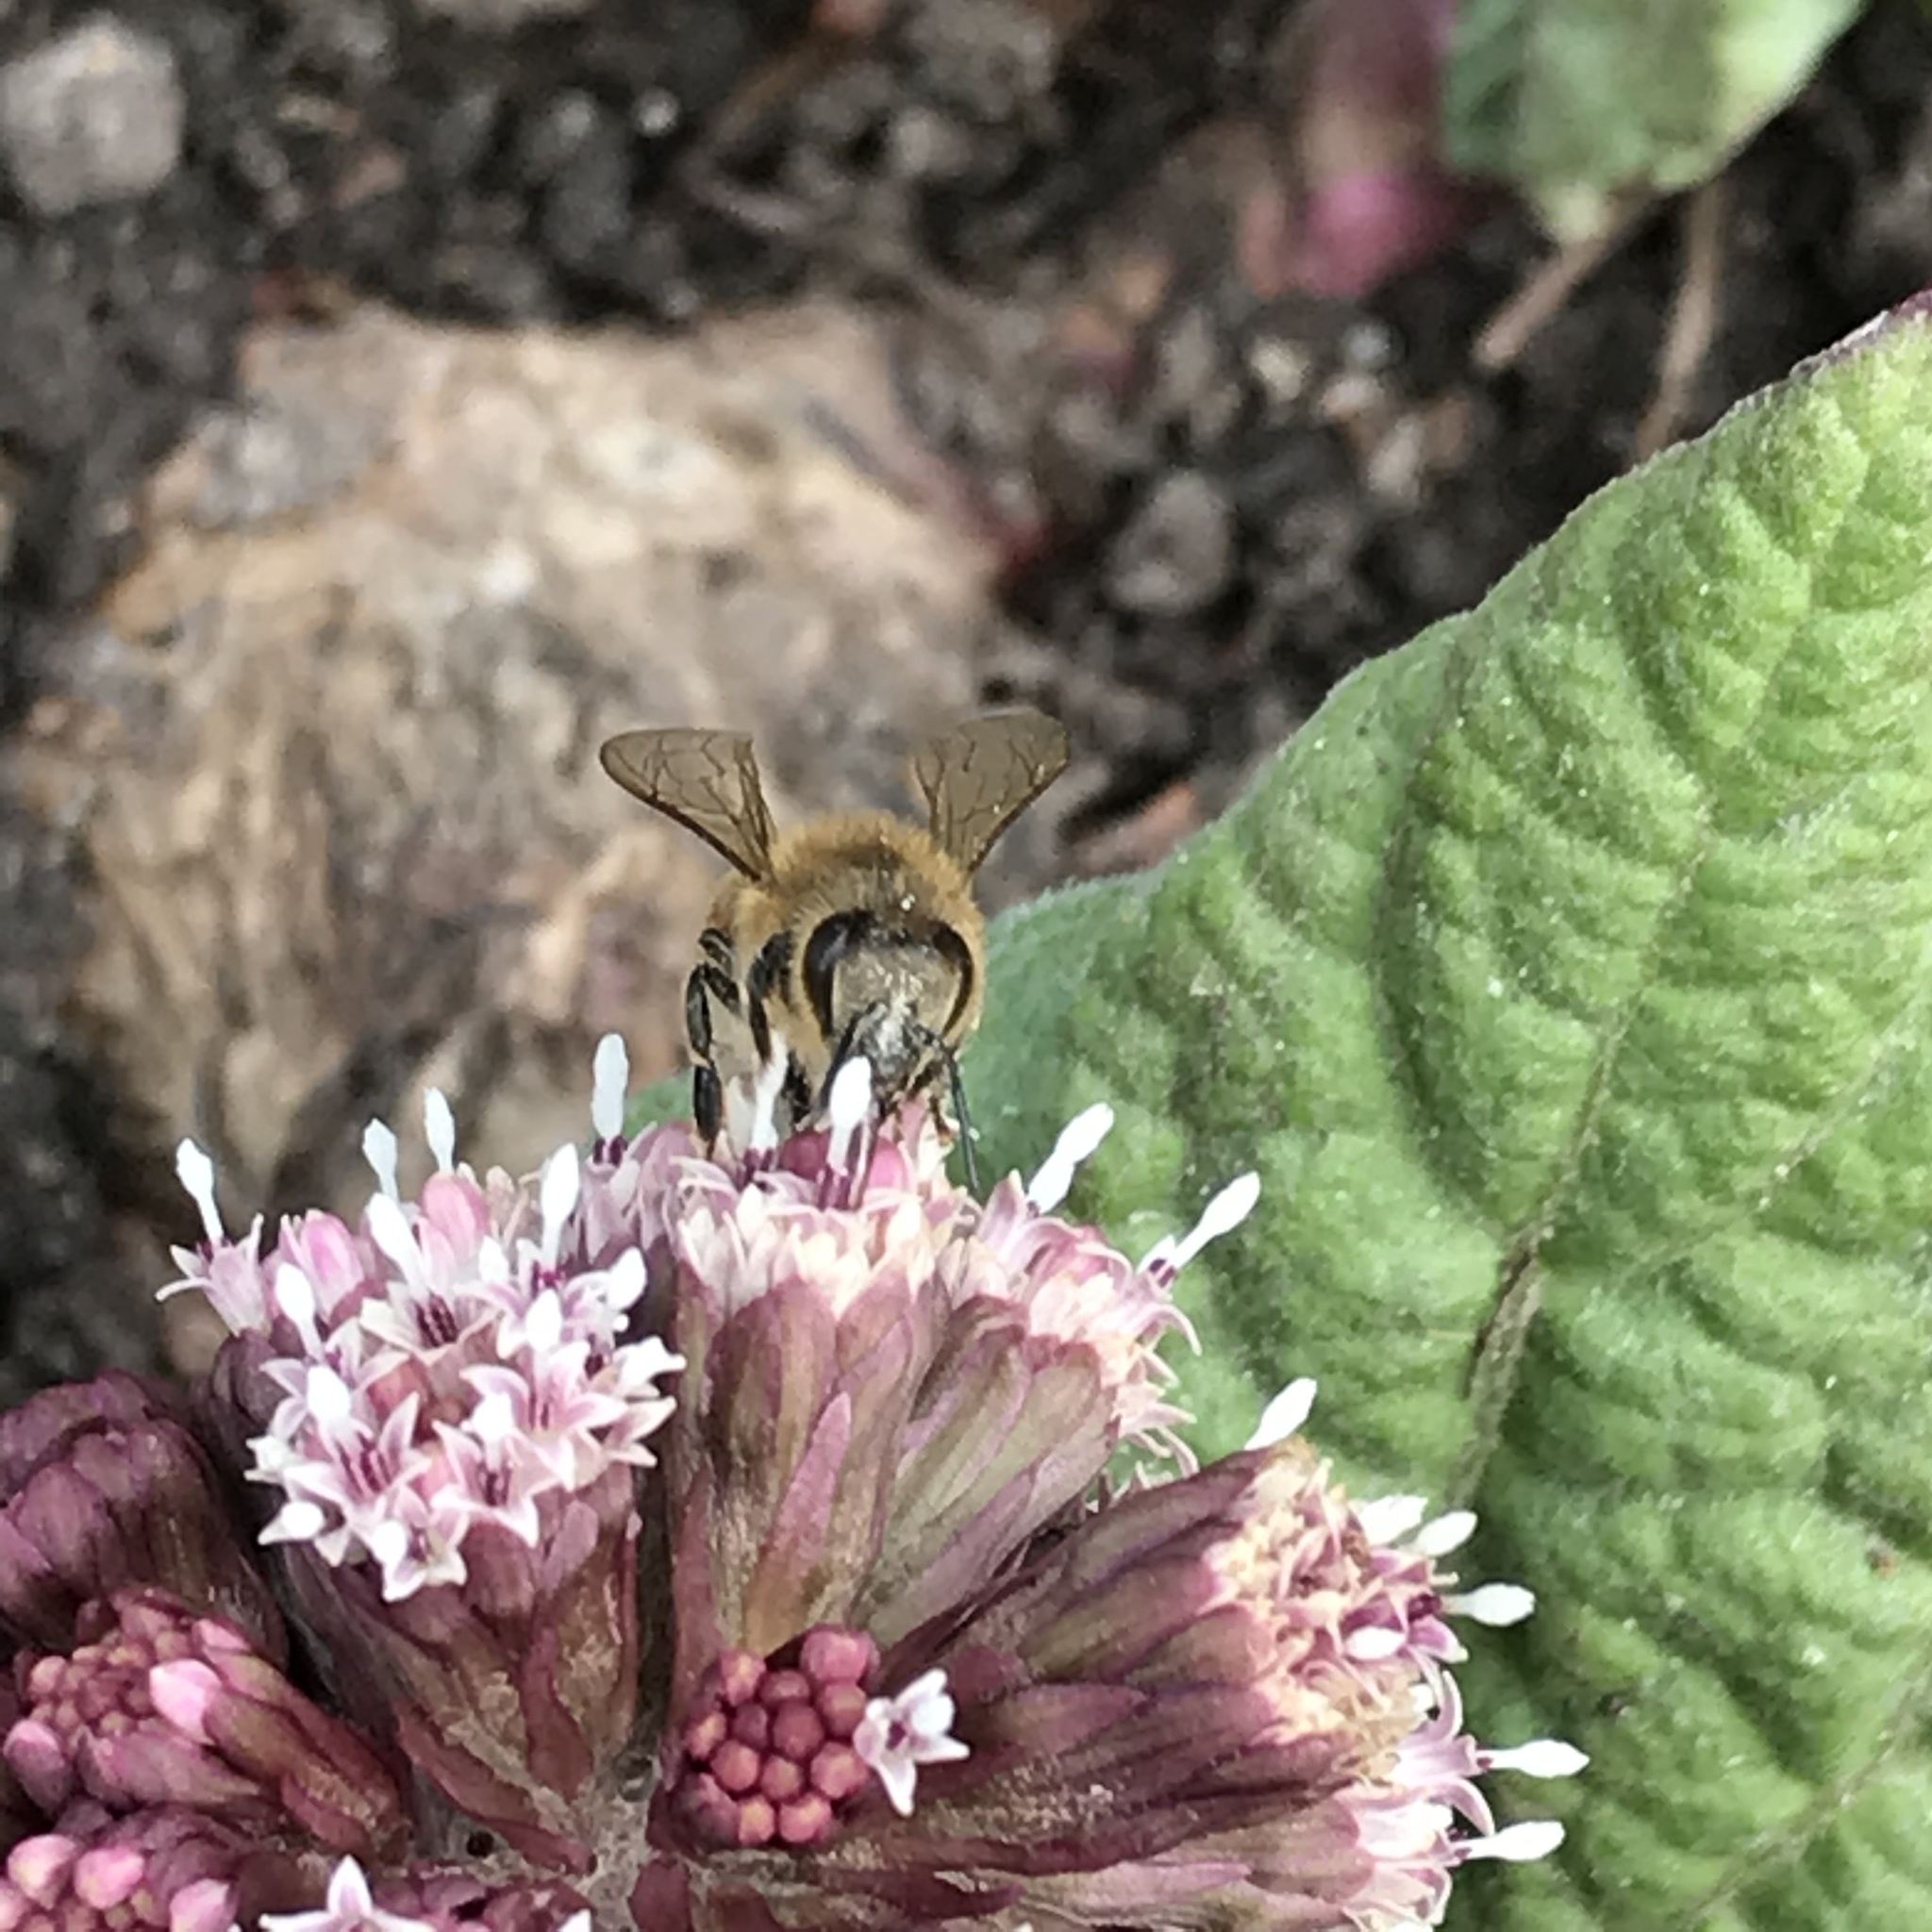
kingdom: Animalia
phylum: Arthropoda
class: Insecta
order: Hymenoptera
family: Apidae
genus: Apis
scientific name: Apis mellifera
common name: Honey bee
